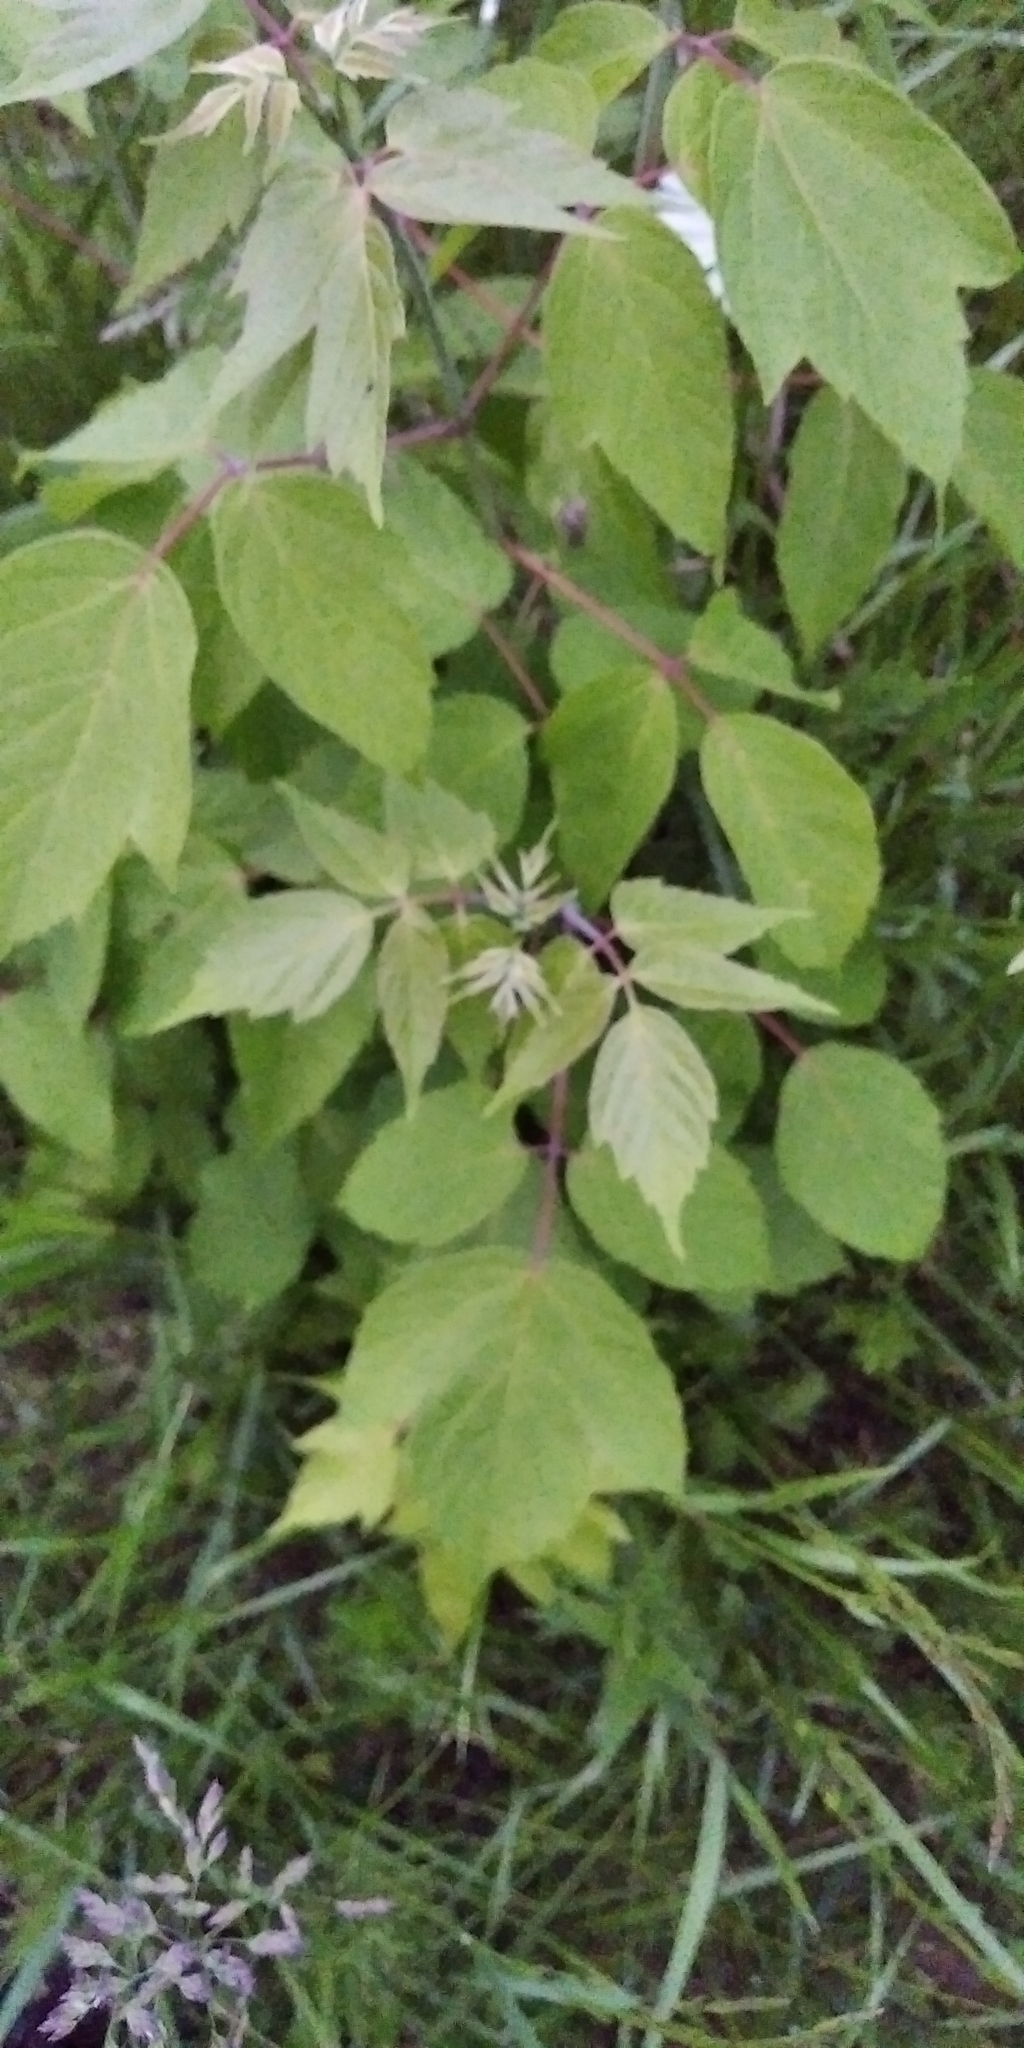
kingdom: Plantae
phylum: Tracheophyta
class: Magnoliopsida
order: Sapindales
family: Sapindaceae
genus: Acer
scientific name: Acer negundo
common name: Ashleaf maple
